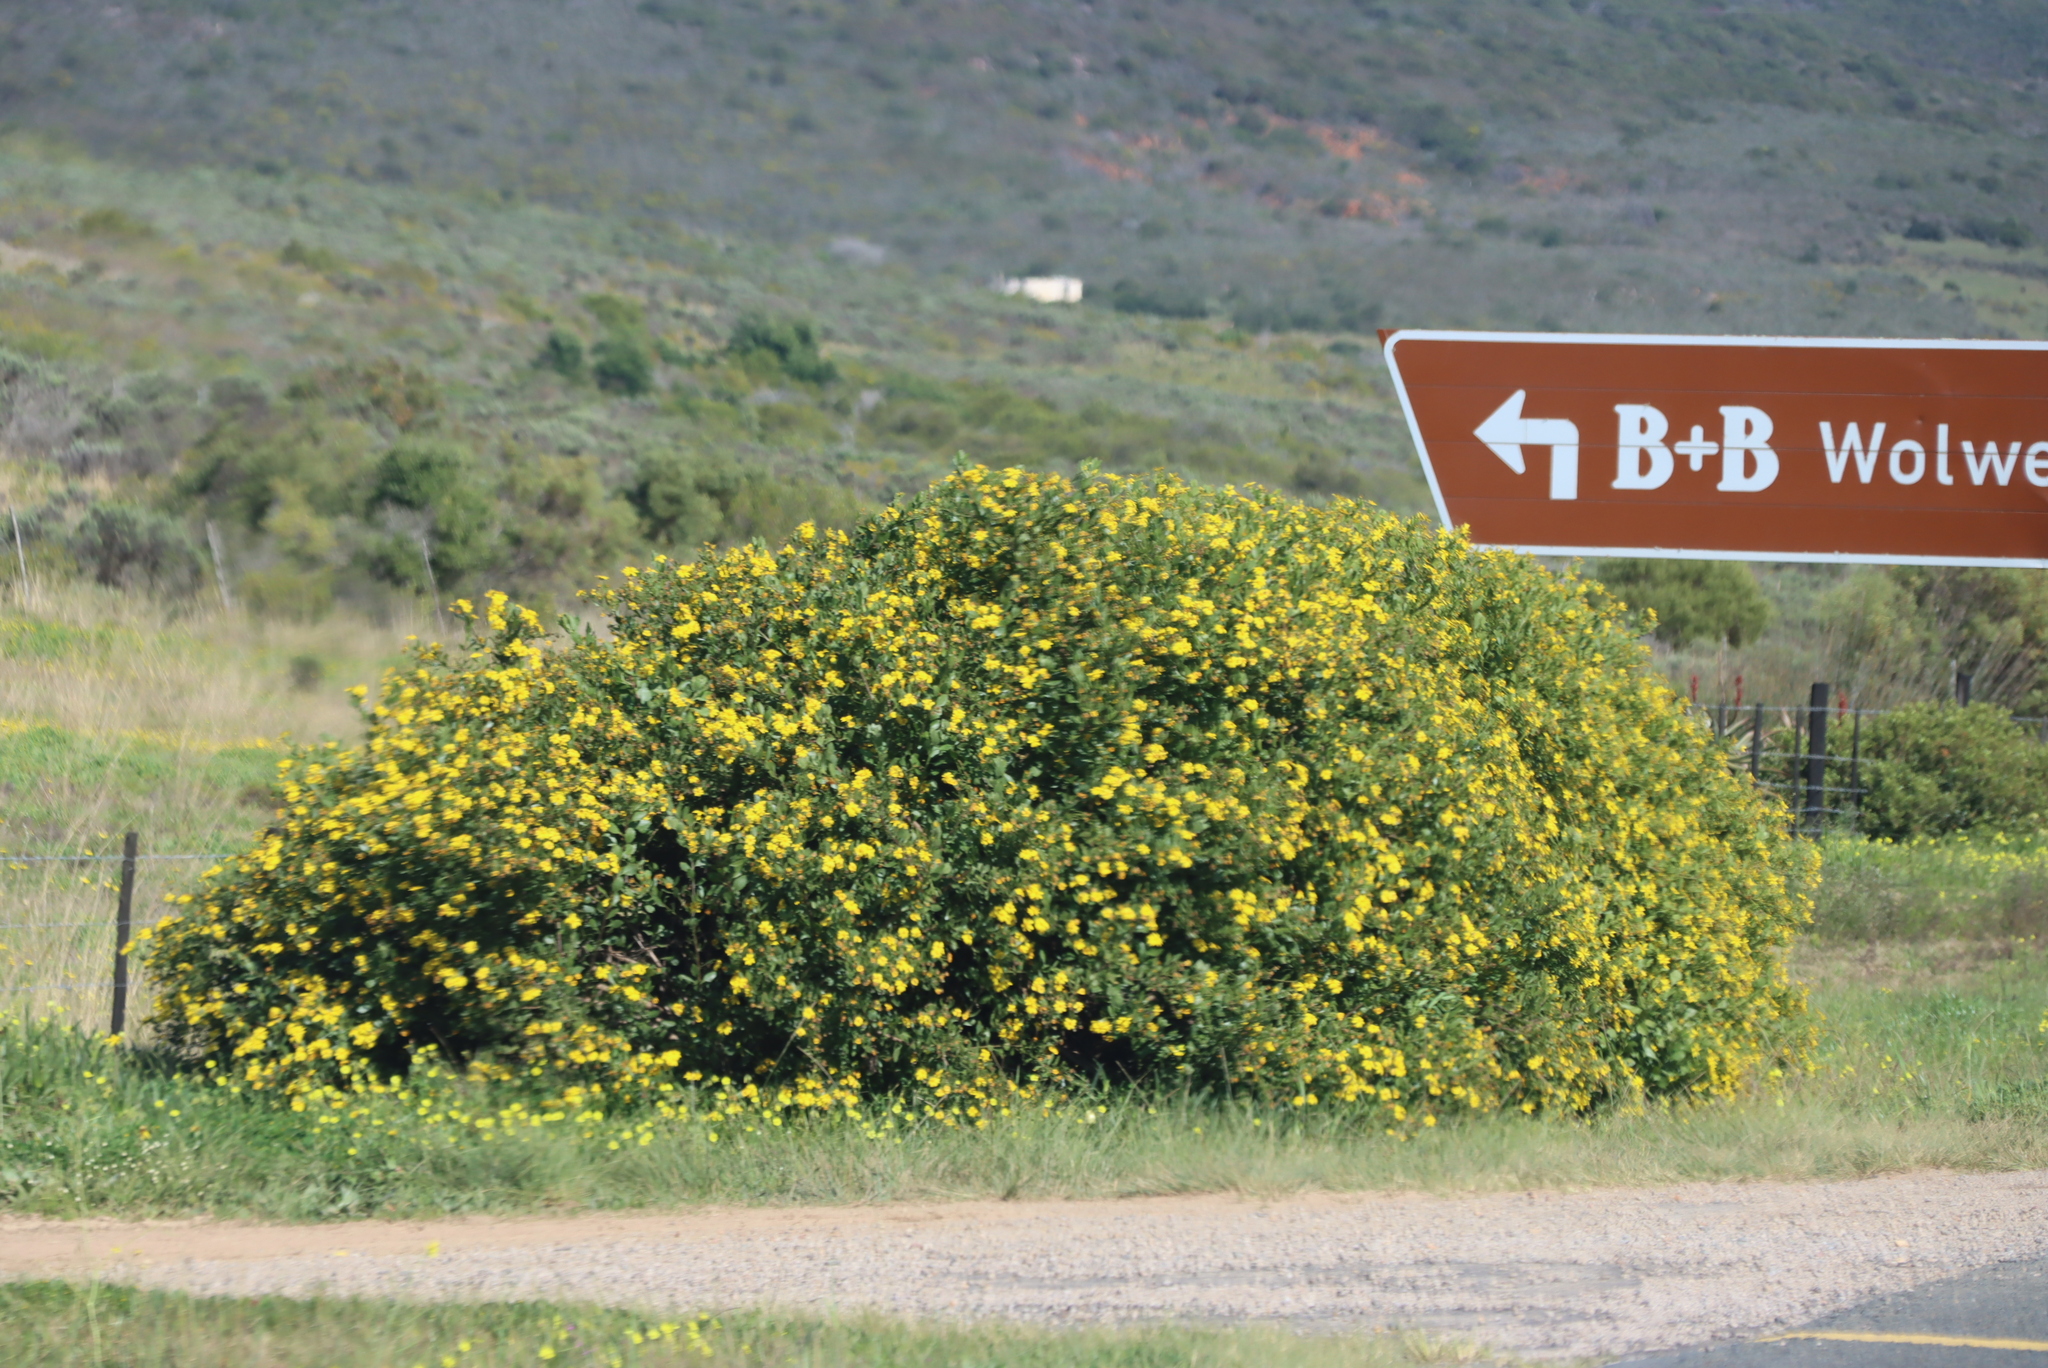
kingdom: Plantae
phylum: Tracheophyta
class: Magnoliopsida
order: Asterales
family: Asteraceae
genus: Osteospermum
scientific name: Osteospermum moniliferum
